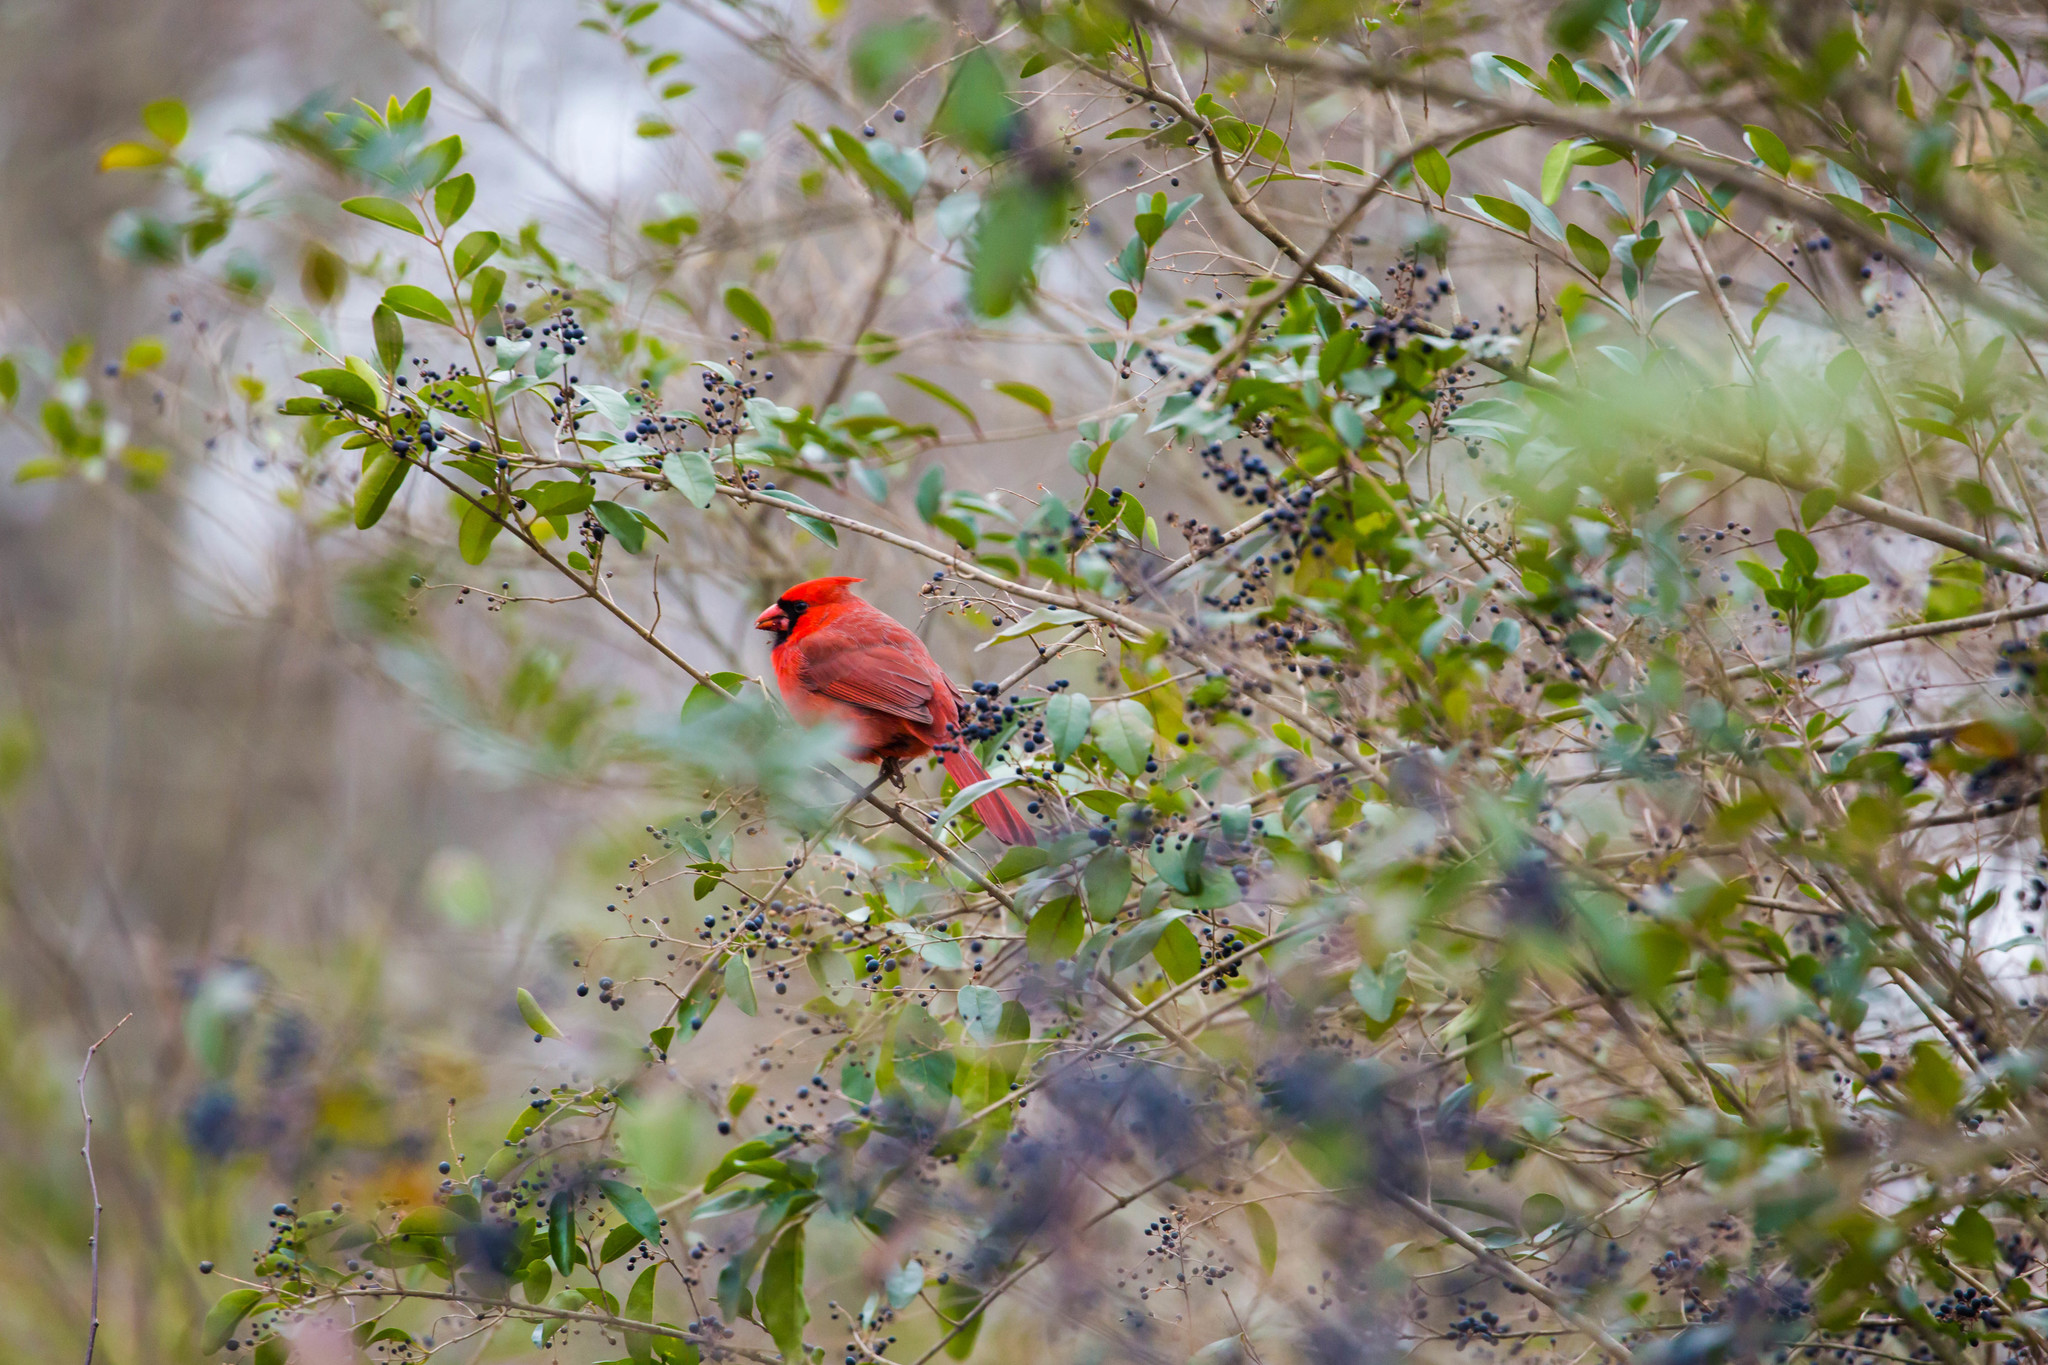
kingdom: Animalia
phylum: Chordata
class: Aves
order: Passeriformes
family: Cardinalidae
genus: Cardinalis
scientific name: Cardinalis cardinalis
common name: Northern cardinal
